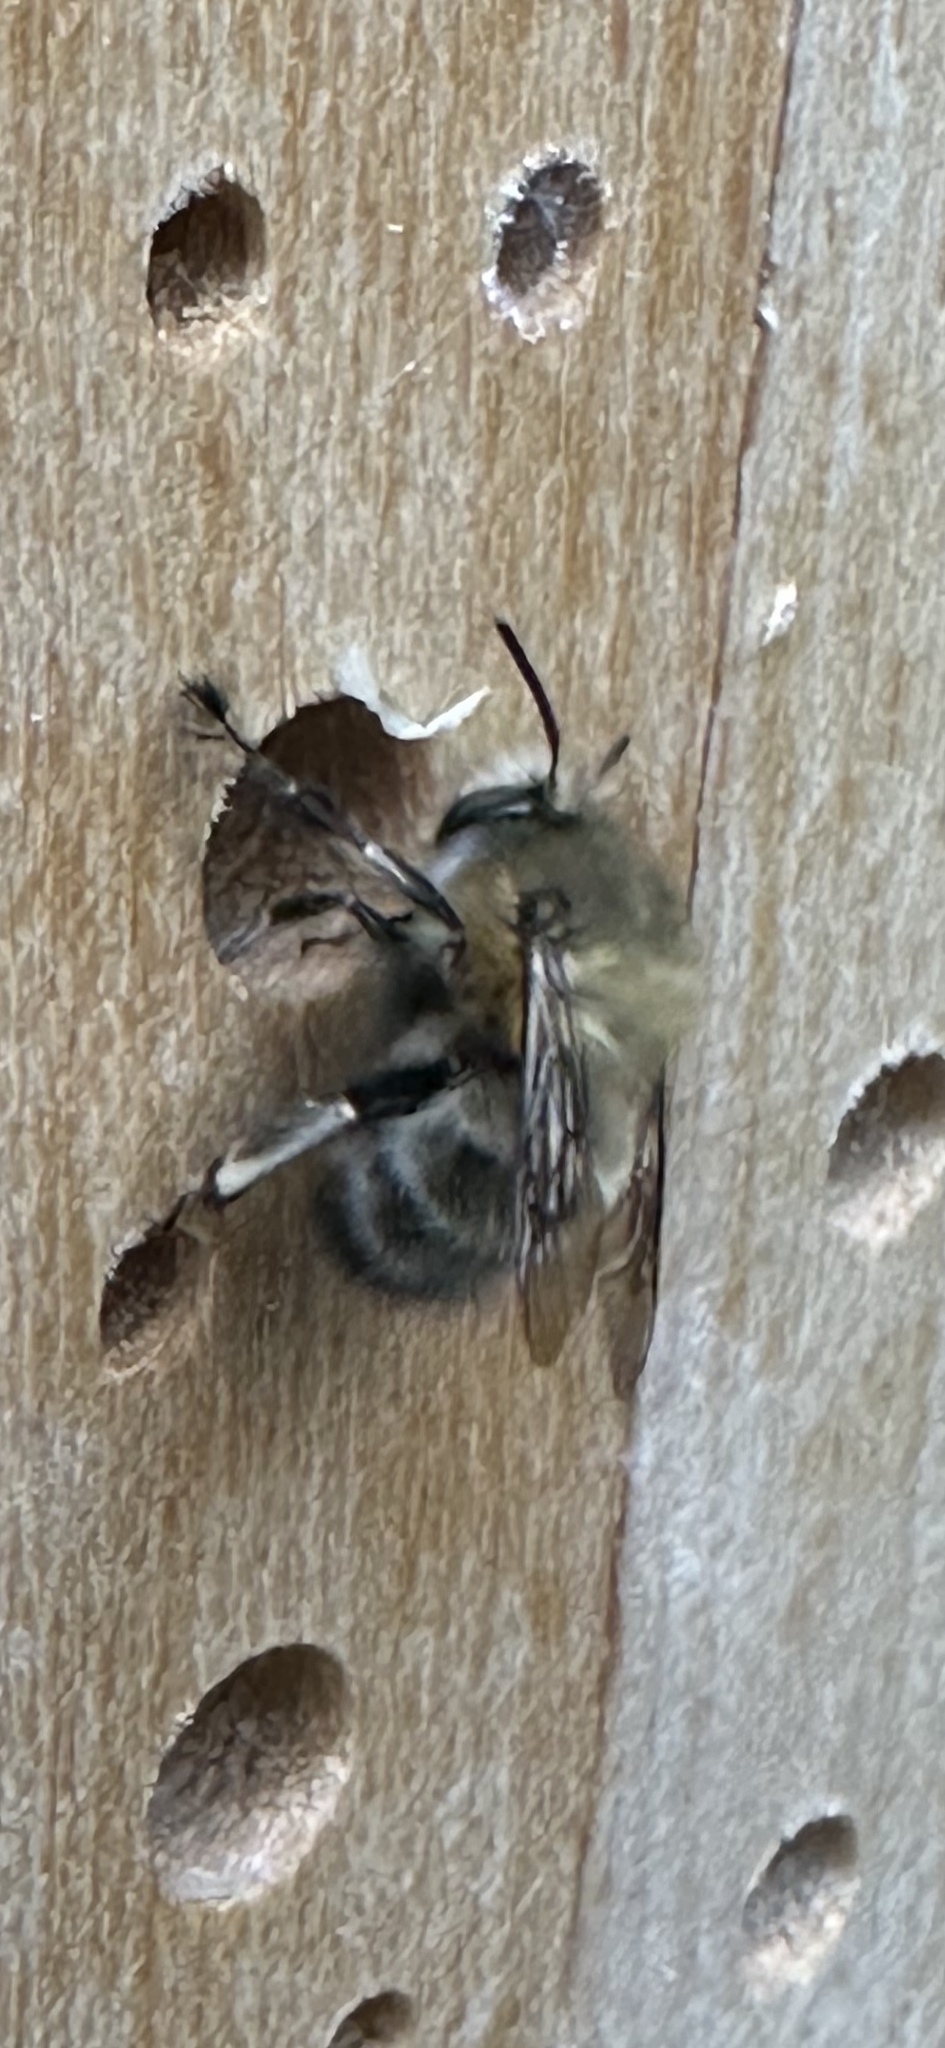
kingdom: Animalia
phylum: Arthropoda
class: Insecta
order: Hymenoptera
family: Apidae
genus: Anthophora
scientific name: Anthophora plumipes
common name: Hairy-footed flower bee
